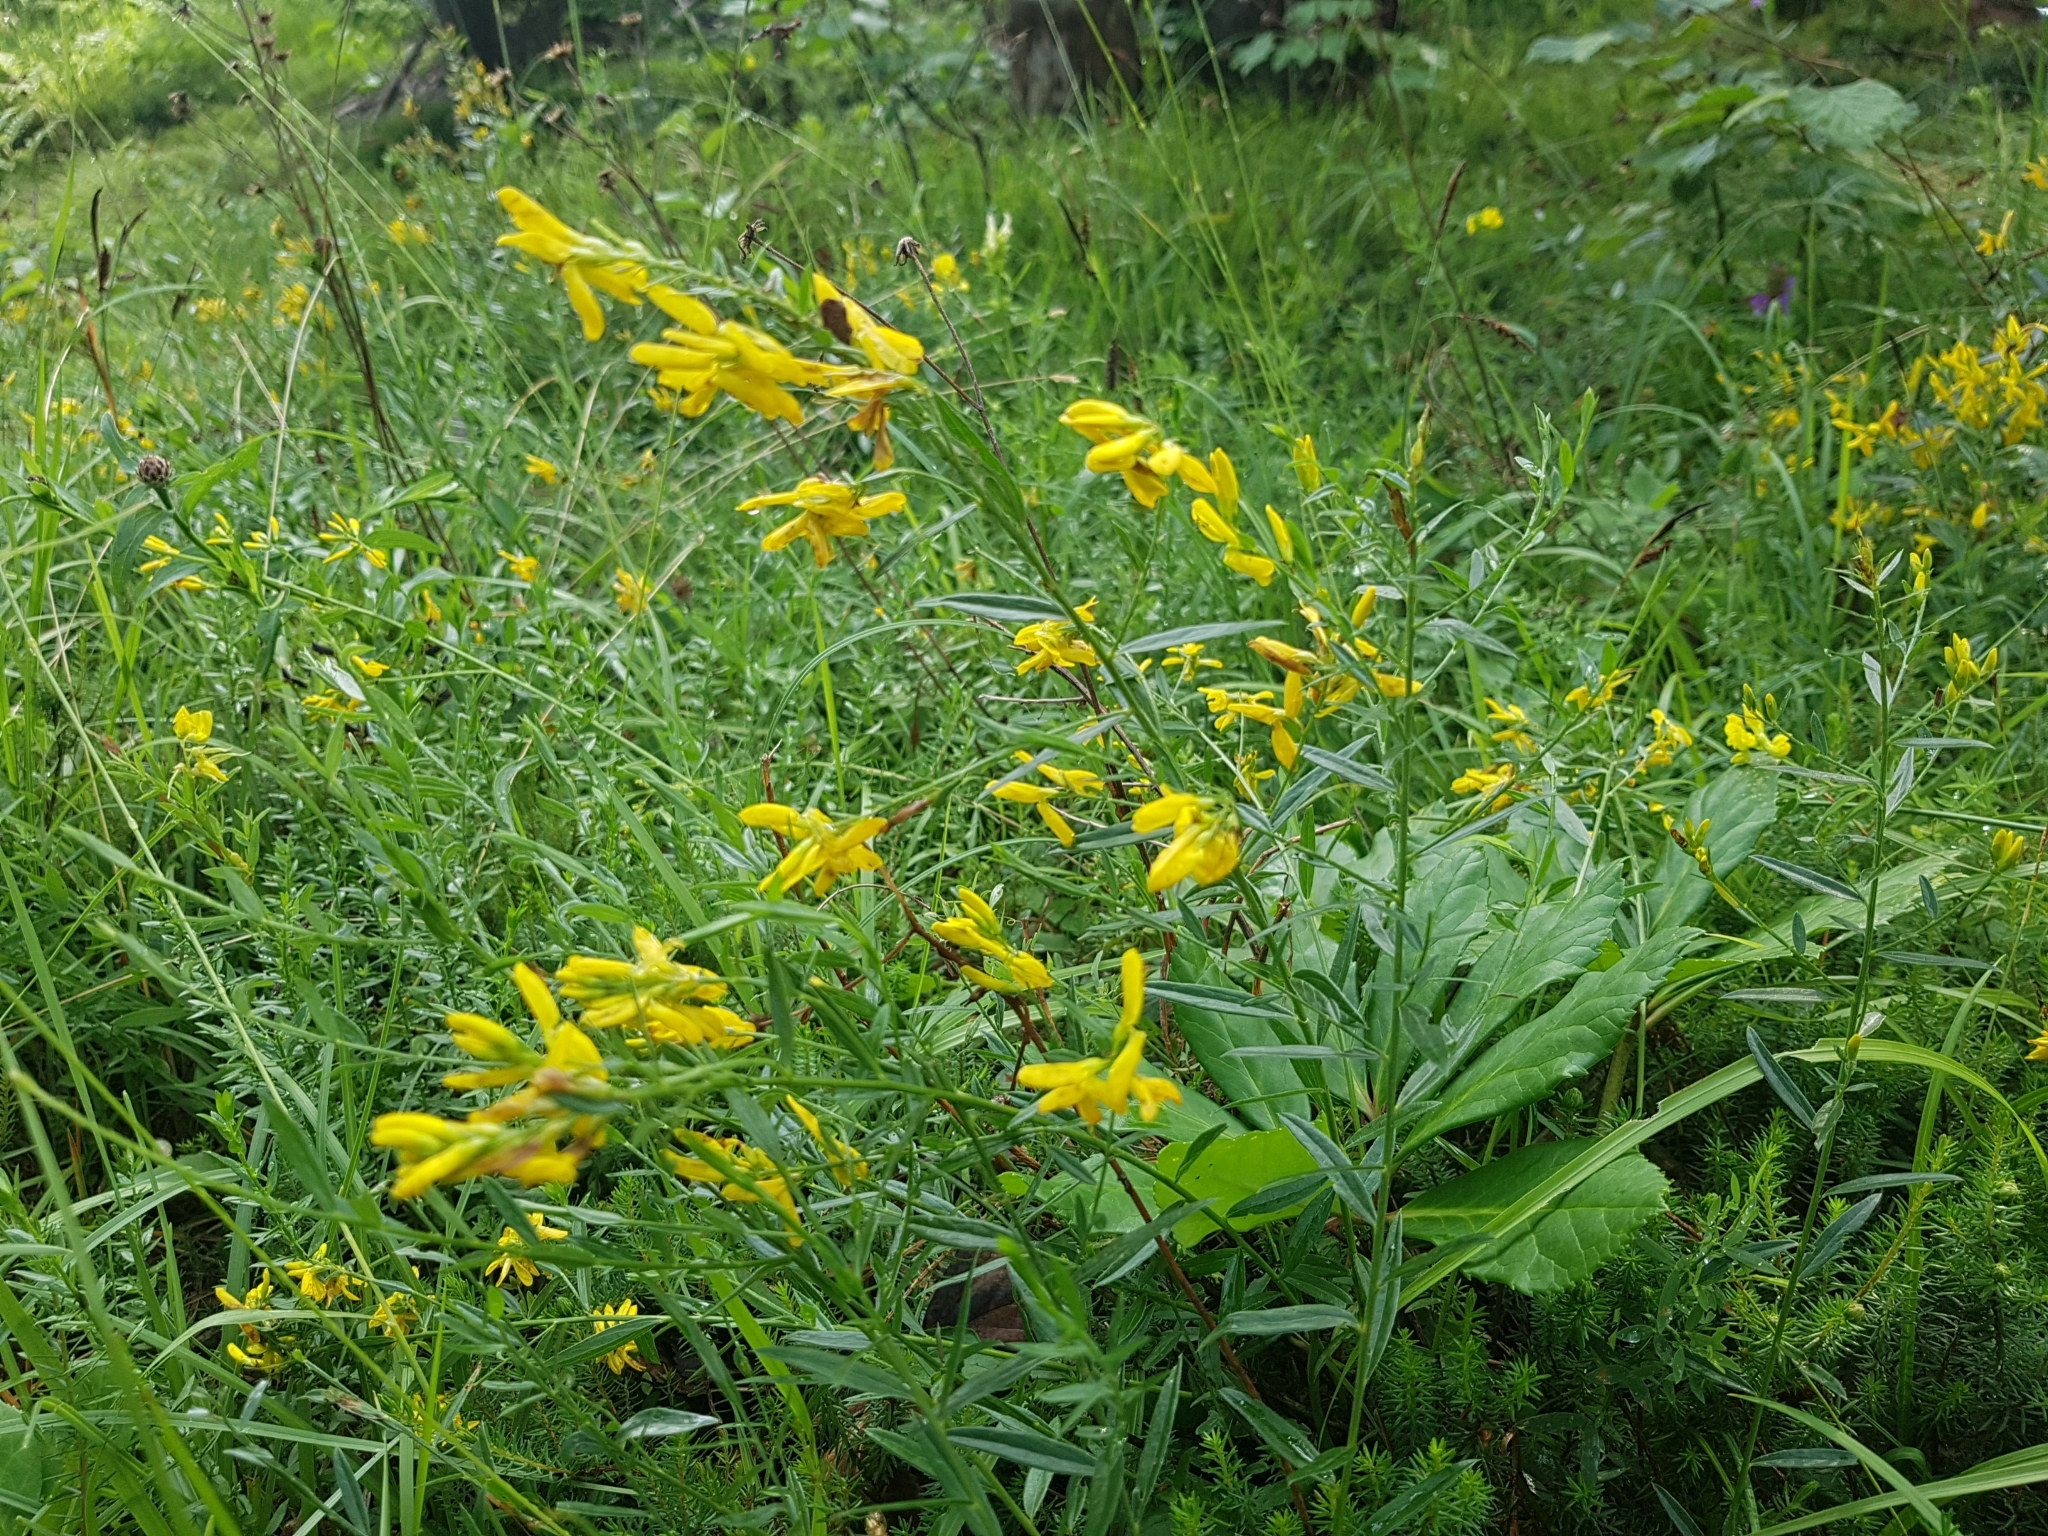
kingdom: Plantae
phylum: Tracheophyta
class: Magnoliopsida
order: Fabales
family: Fabaceae
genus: Genista
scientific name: Genista tinctoria
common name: Dyer's greenweed
